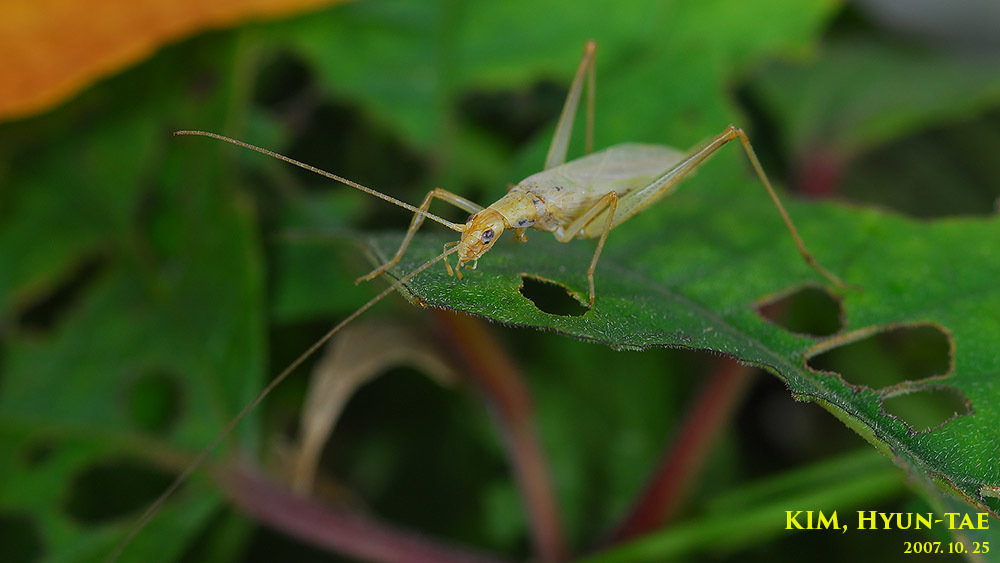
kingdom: Animalia
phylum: Arthropoda
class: Insecta
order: Orthoptera
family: Gryllidae
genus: Oecanthus
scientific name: Oecanthus longicauda
